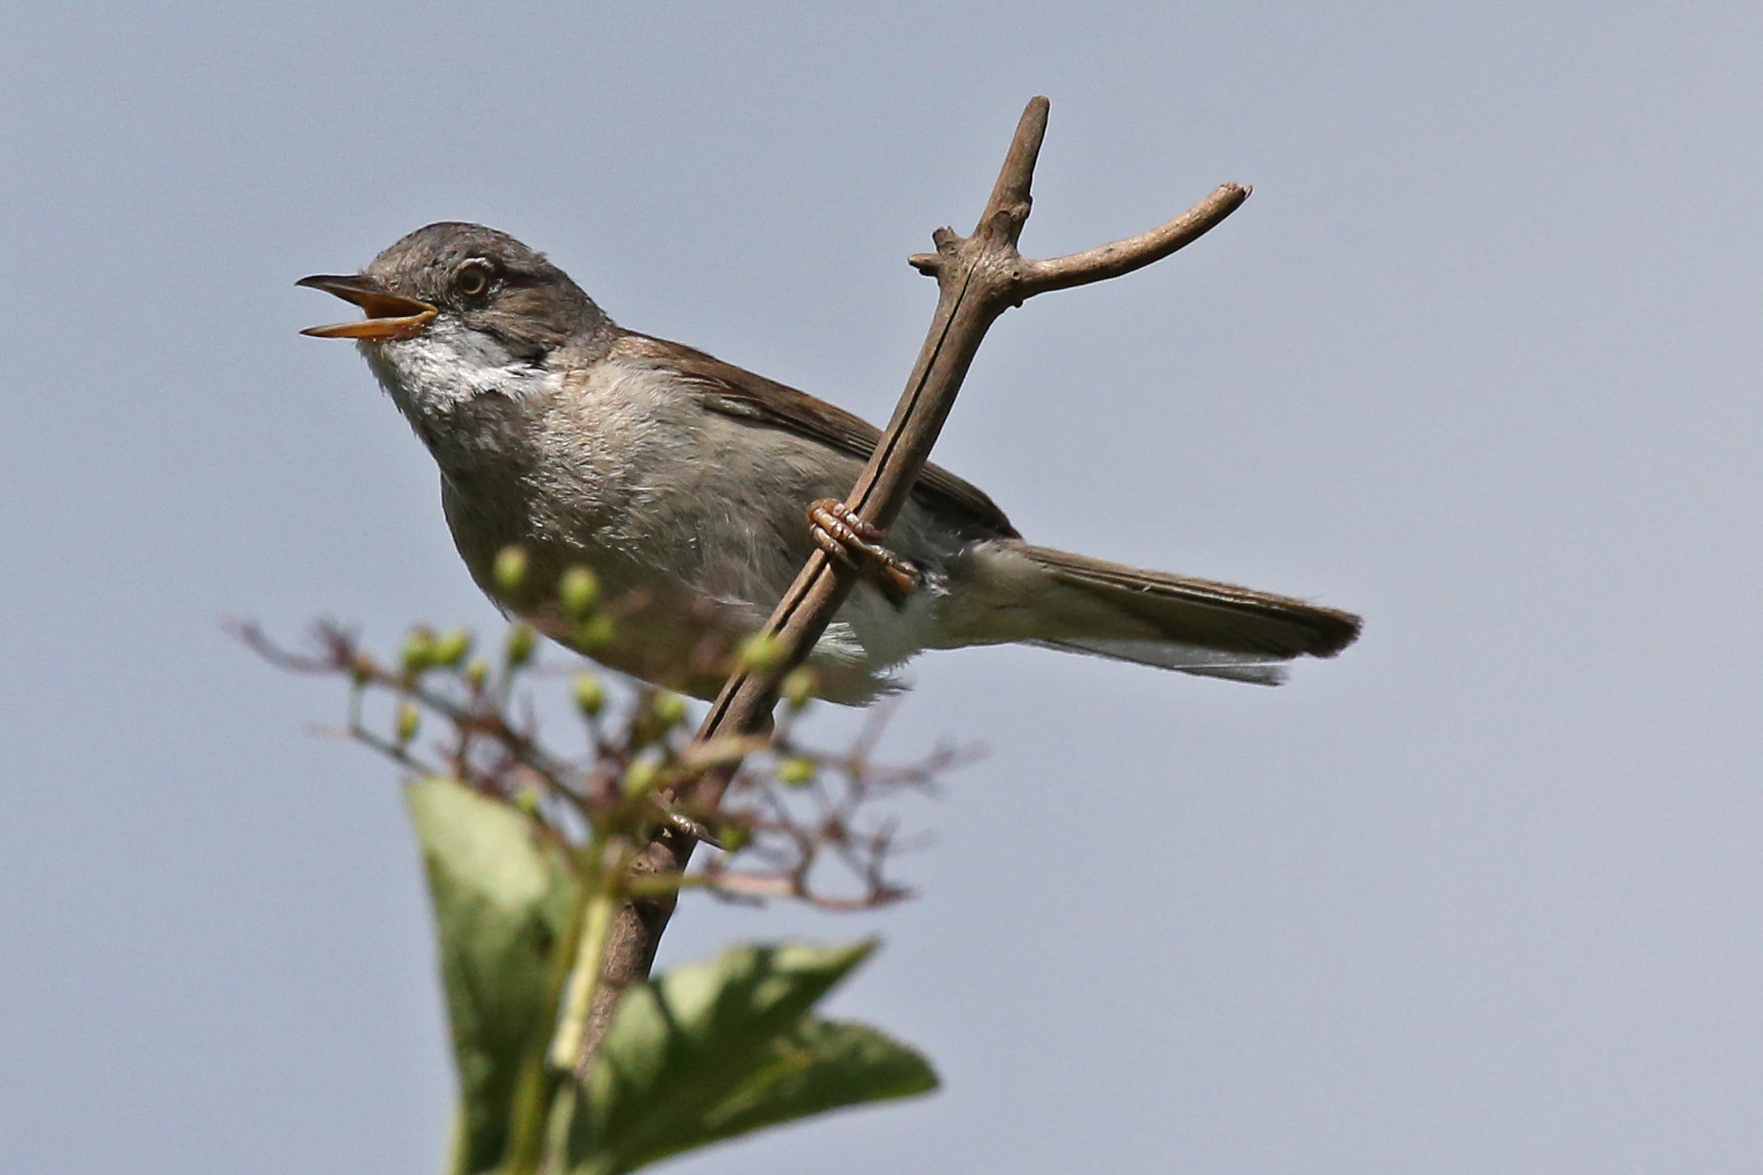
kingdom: Animalia
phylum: Chordata
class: Aves
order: Passeriformes
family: Sylviidae
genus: Sylvia
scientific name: Sylvia communis
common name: Common whitethroat
